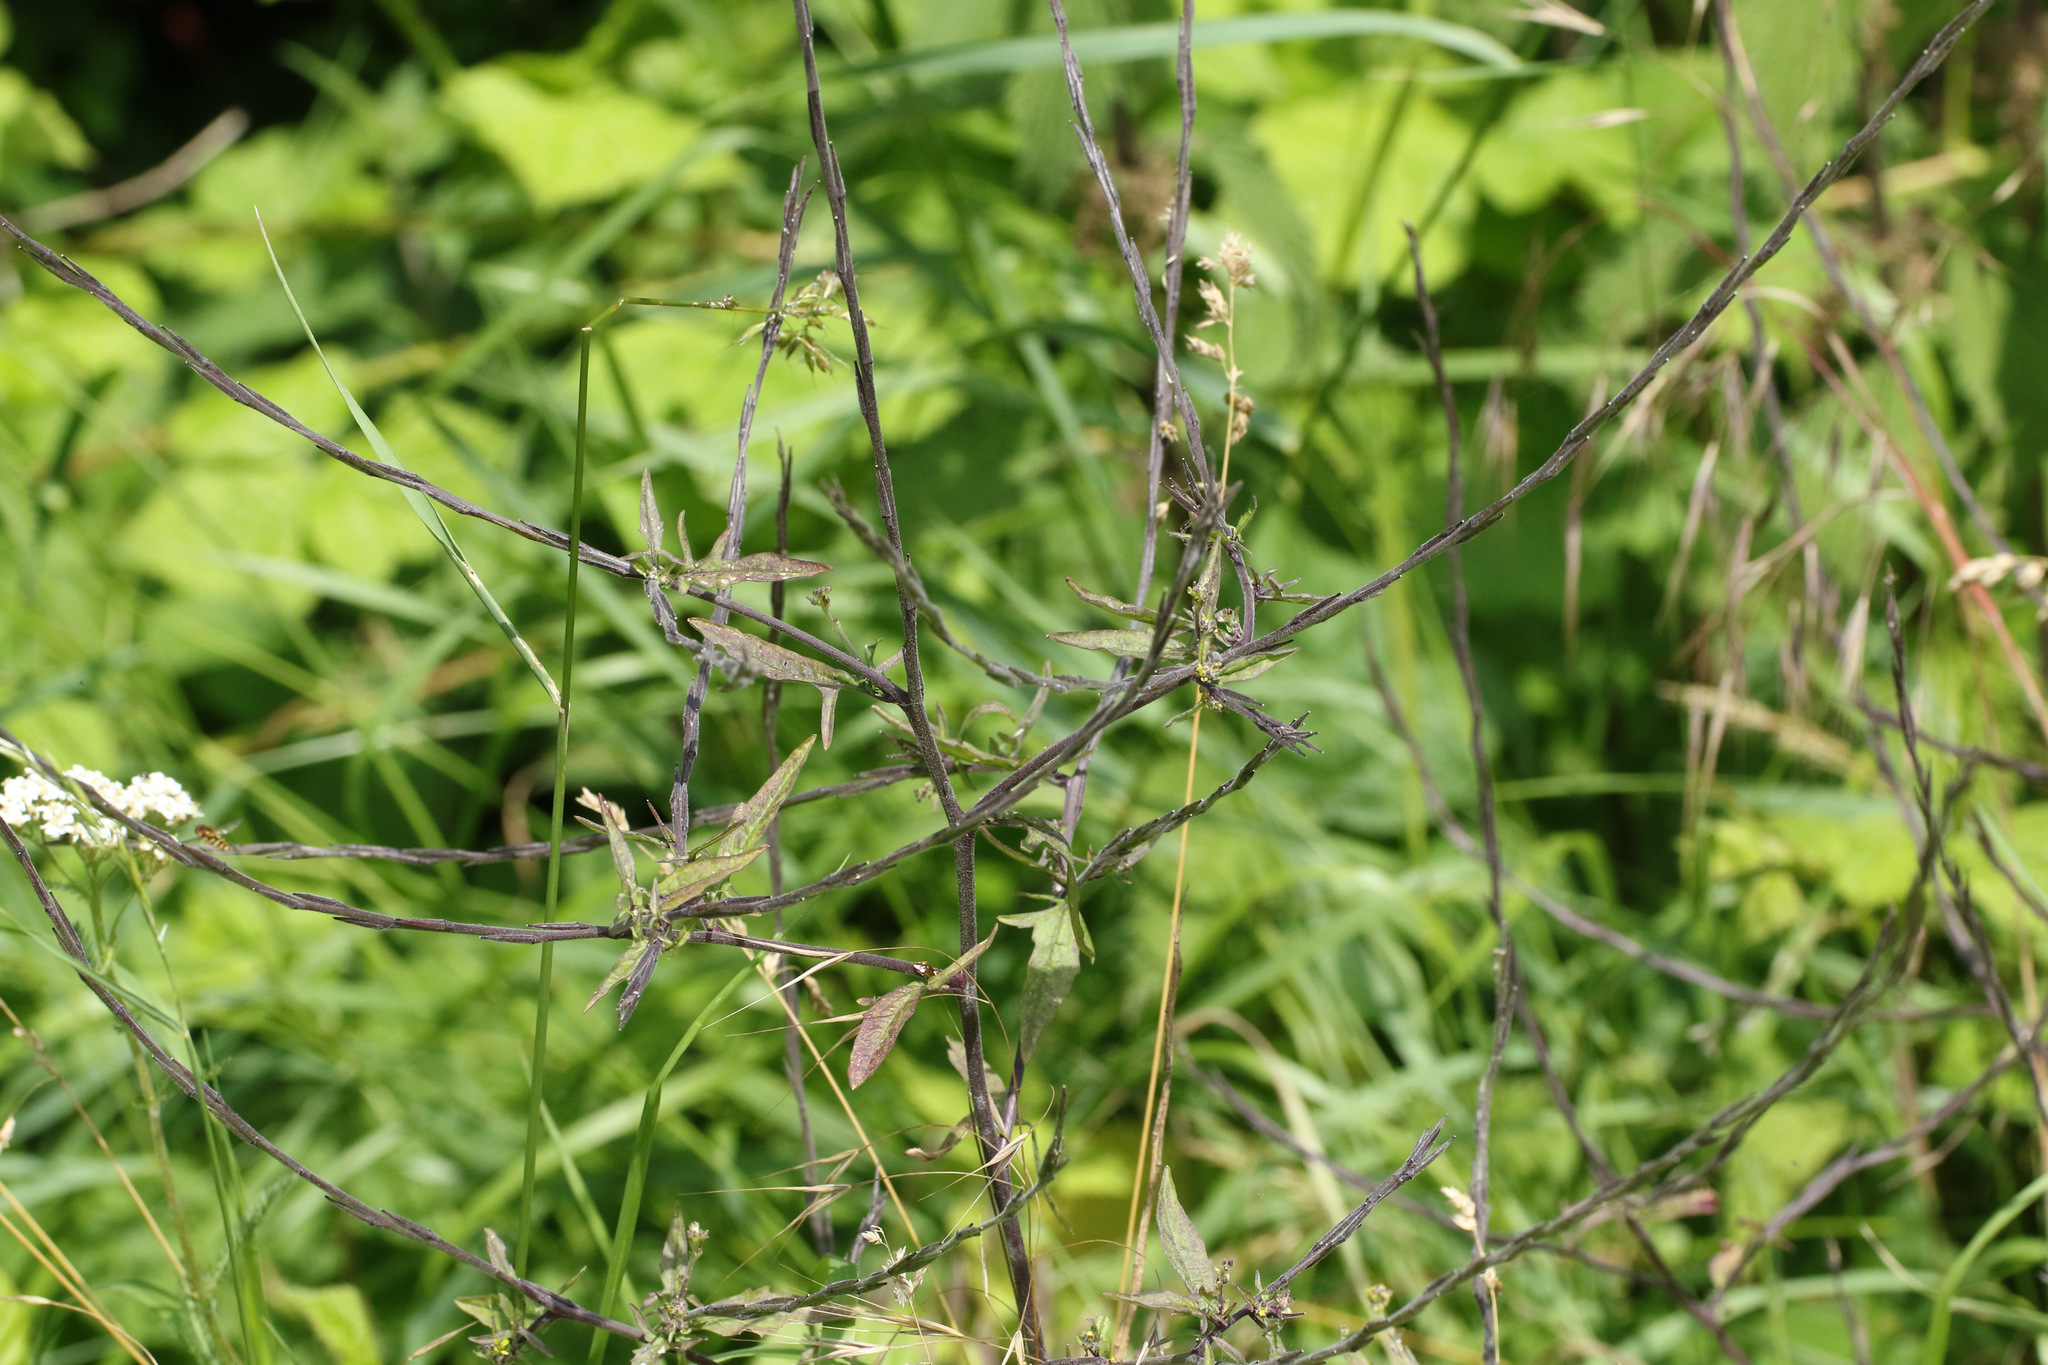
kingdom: Plantae
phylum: Tracheophyta
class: Magnoliopsida
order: Brassicales
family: Brassicaceae
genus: Sisymbrium
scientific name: Sisymbrium officinale
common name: Hedge mustard
